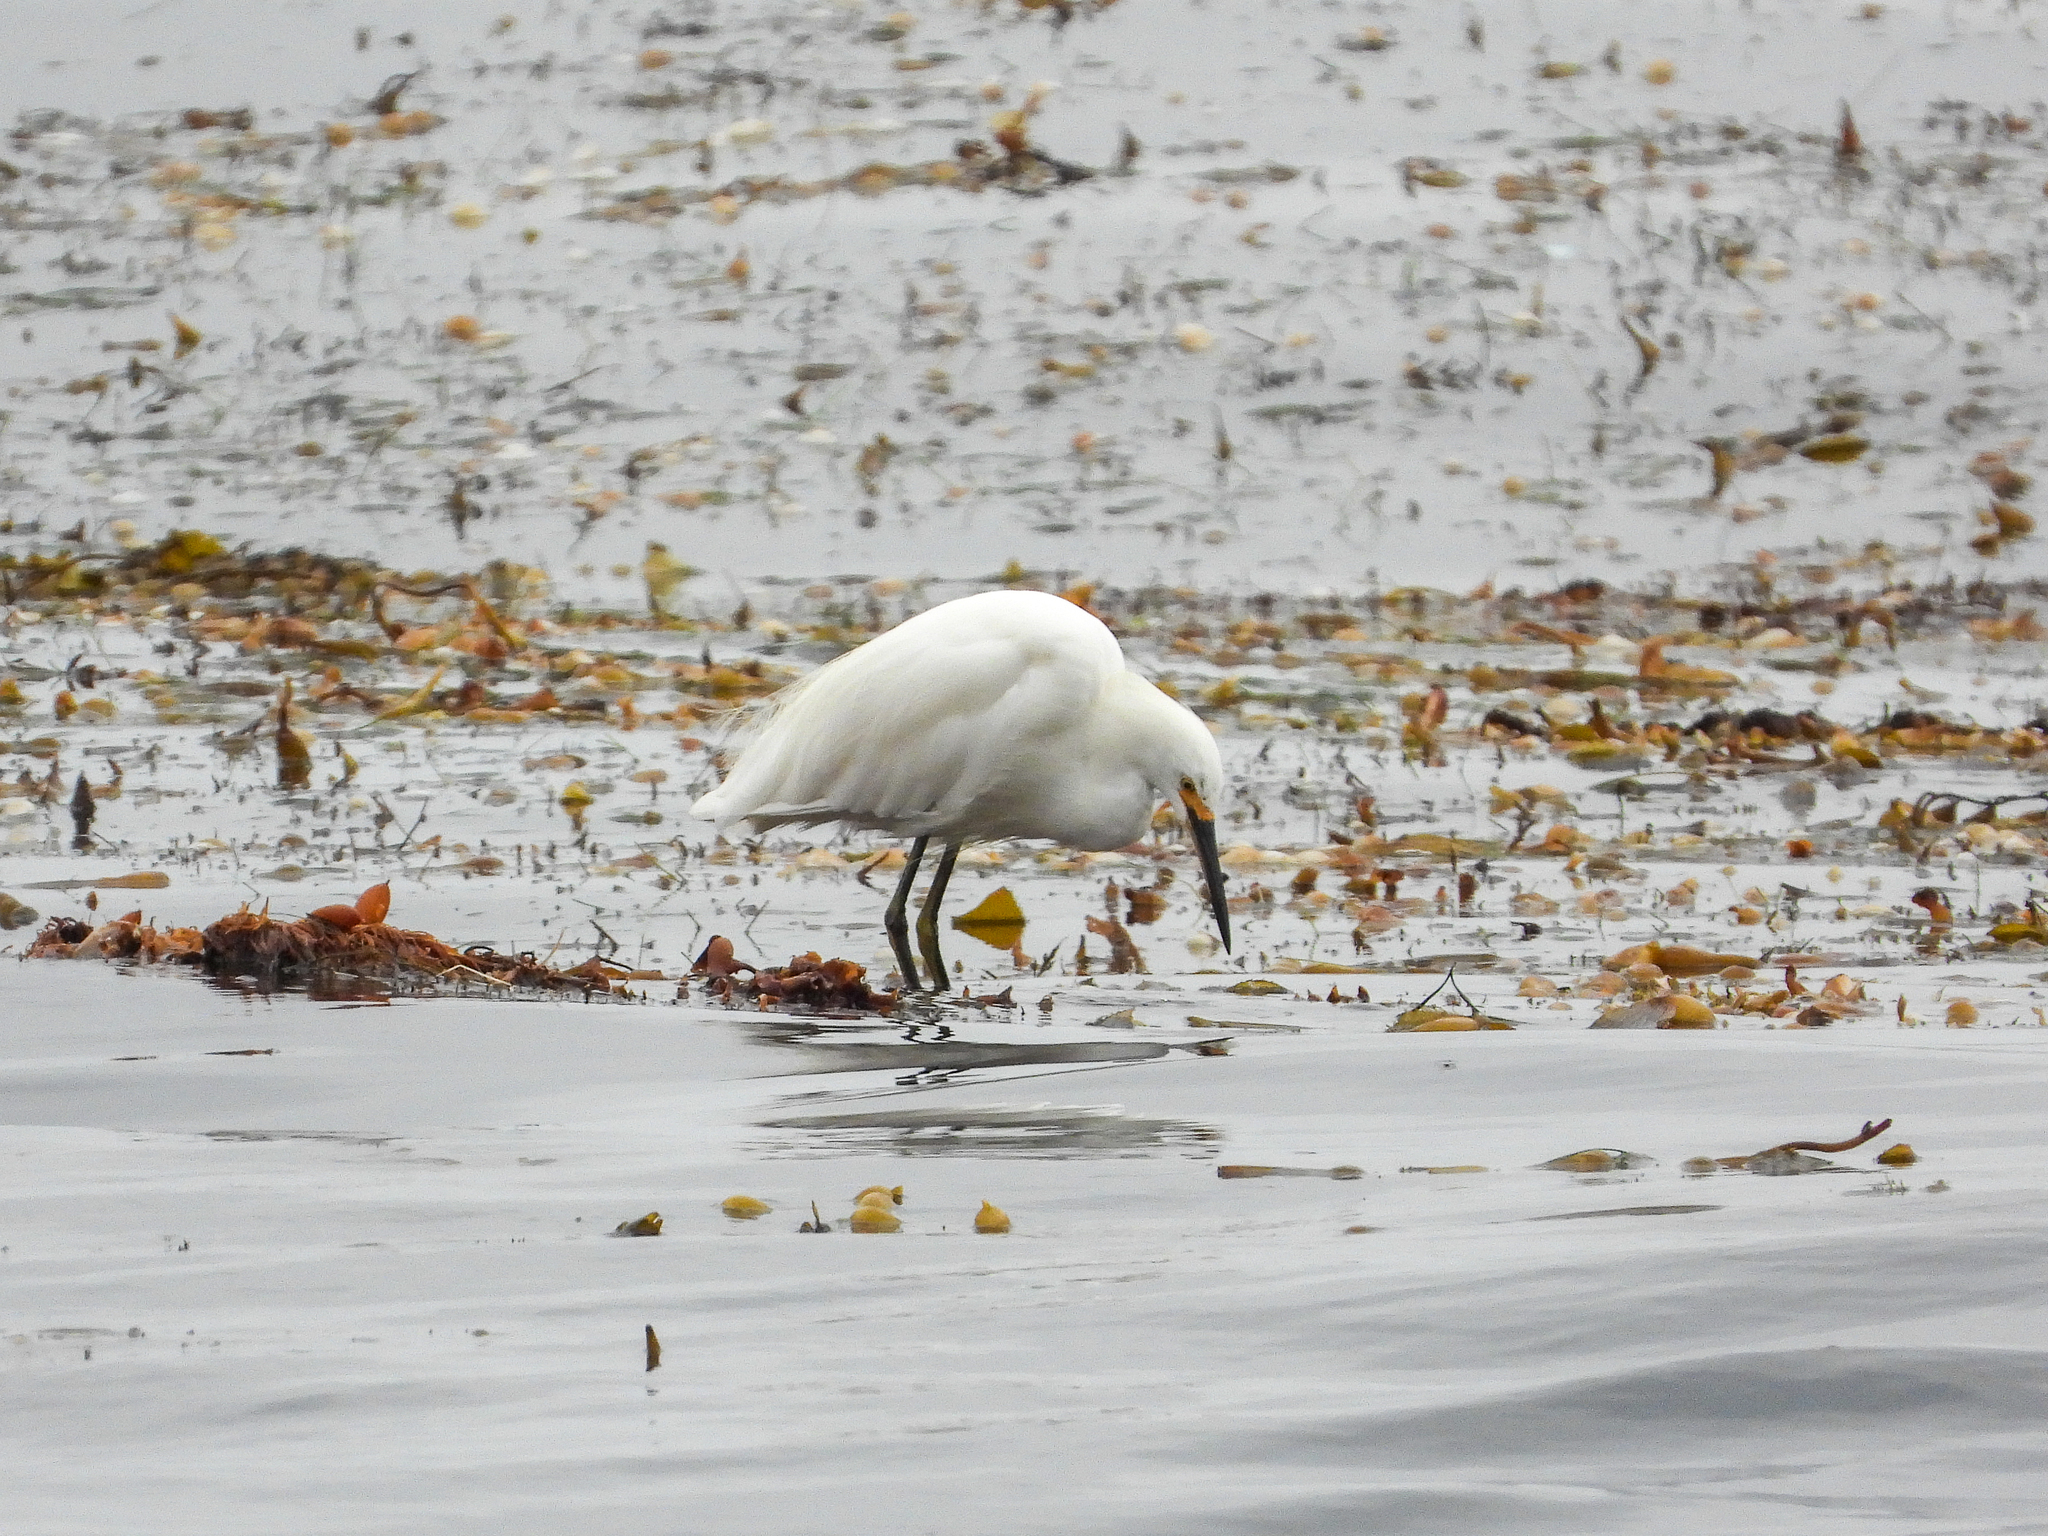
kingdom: Animalia
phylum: Chordata
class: Aves
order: Pelecaniformes
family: Ardeidae
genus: Egretta
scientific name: Egretta thula
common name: Snowy egret
